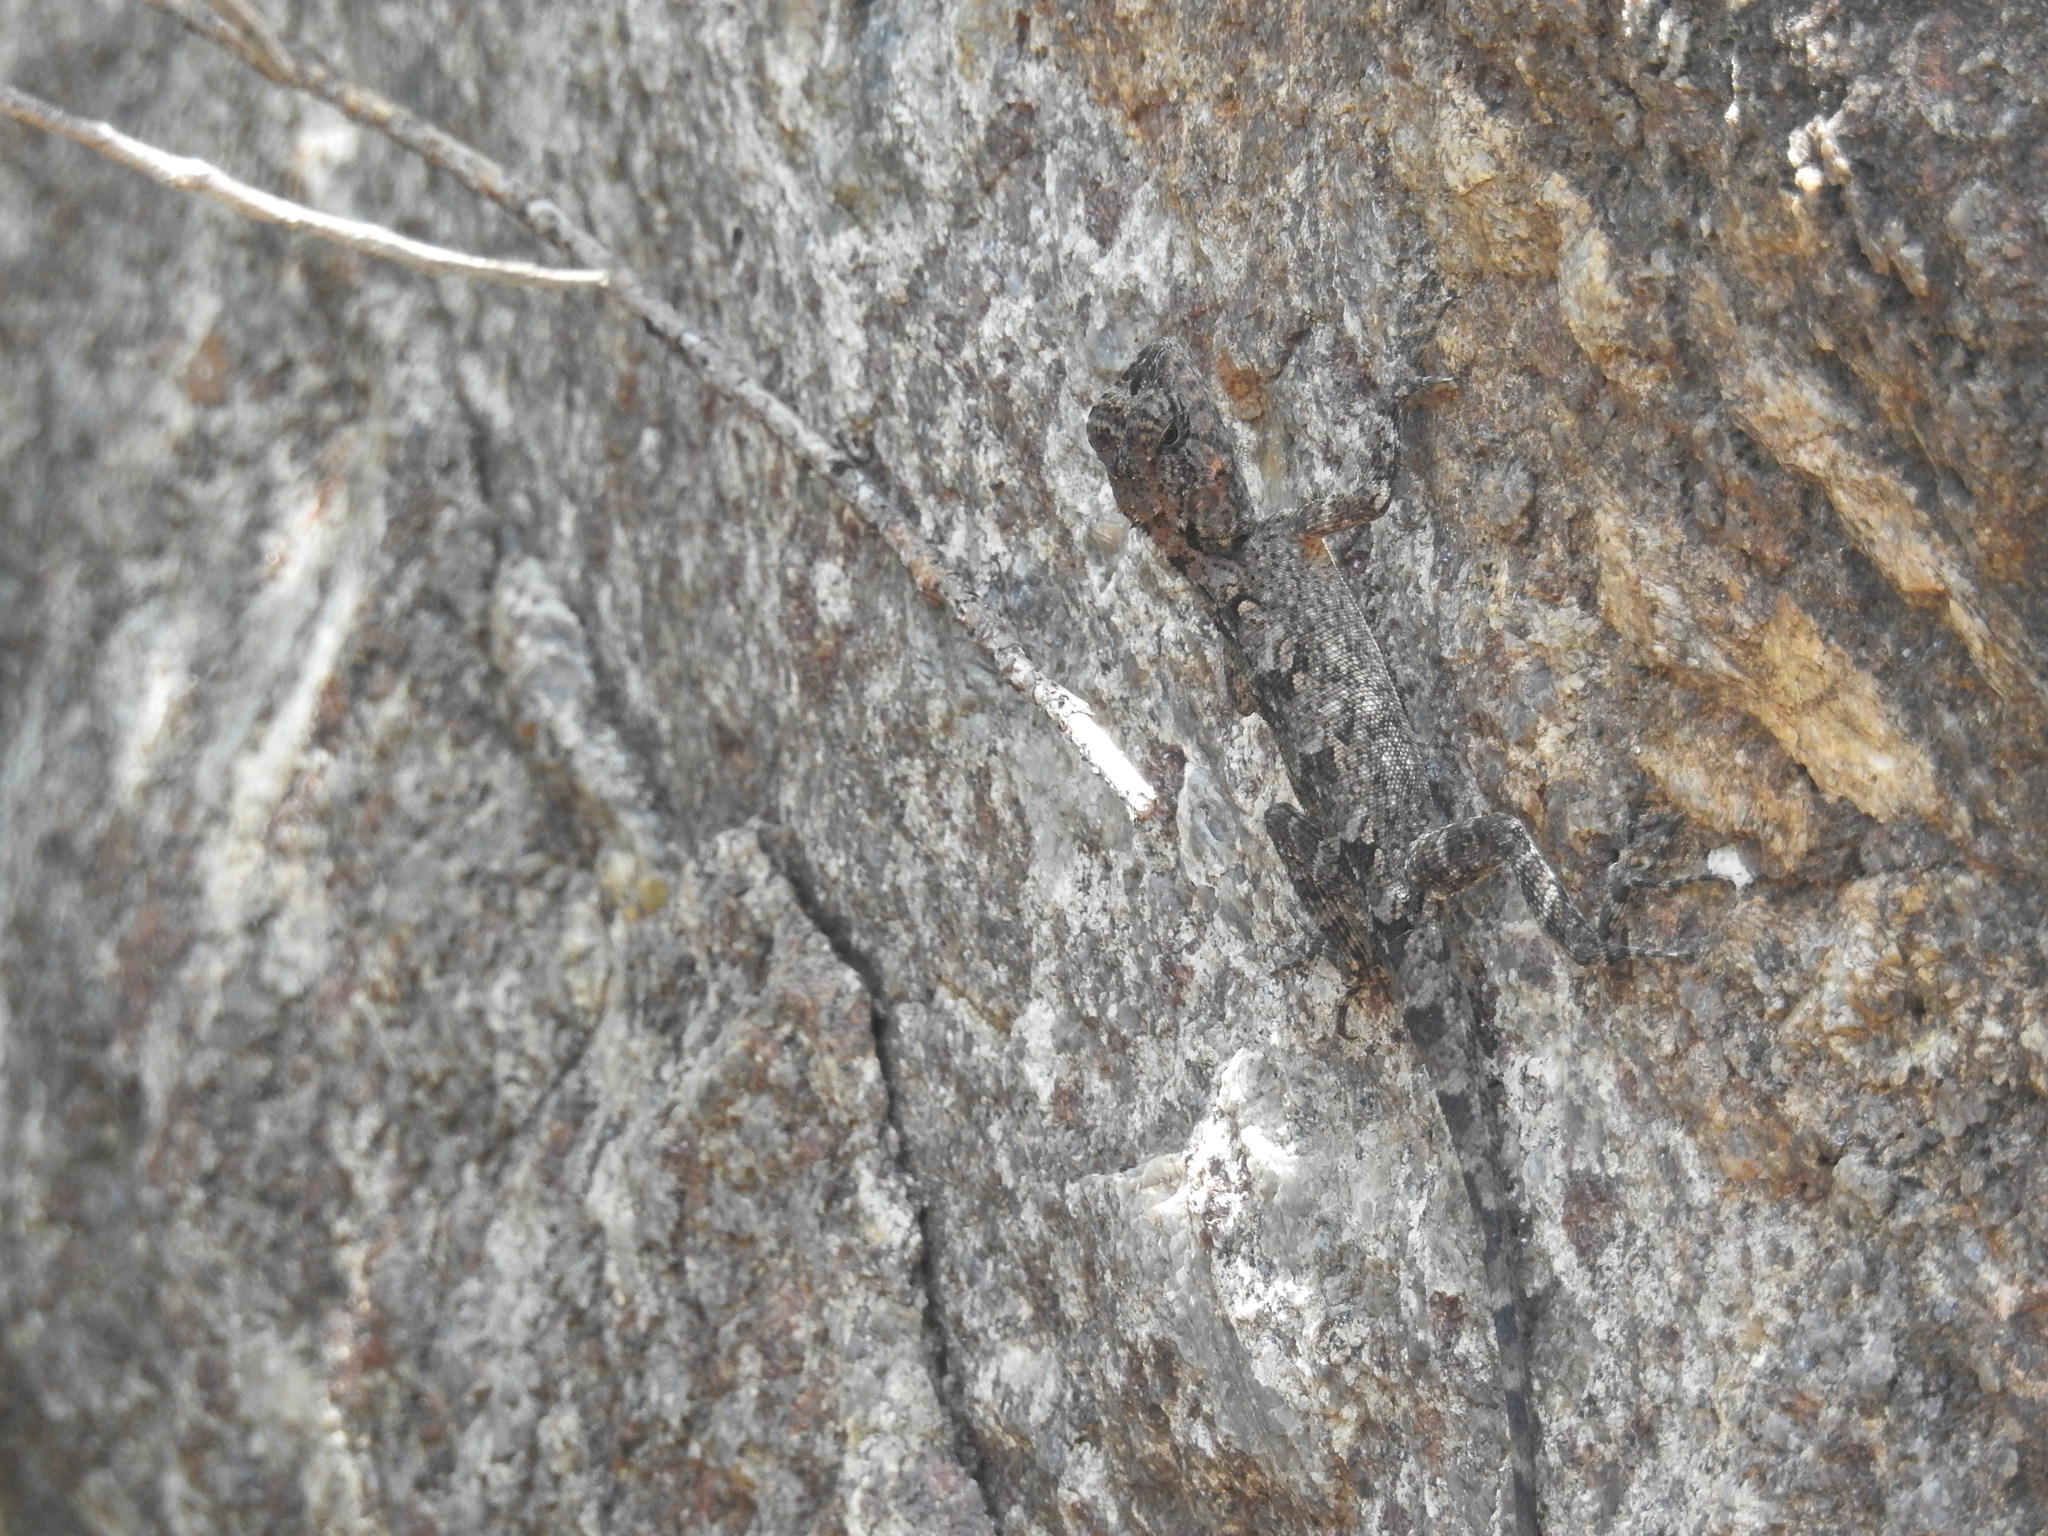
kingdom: Animalia
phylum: Chordata
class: Squamata
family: Agamidae
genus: Psammophilus
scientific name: Psammophilus dorsalis
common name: South indian rock agama
